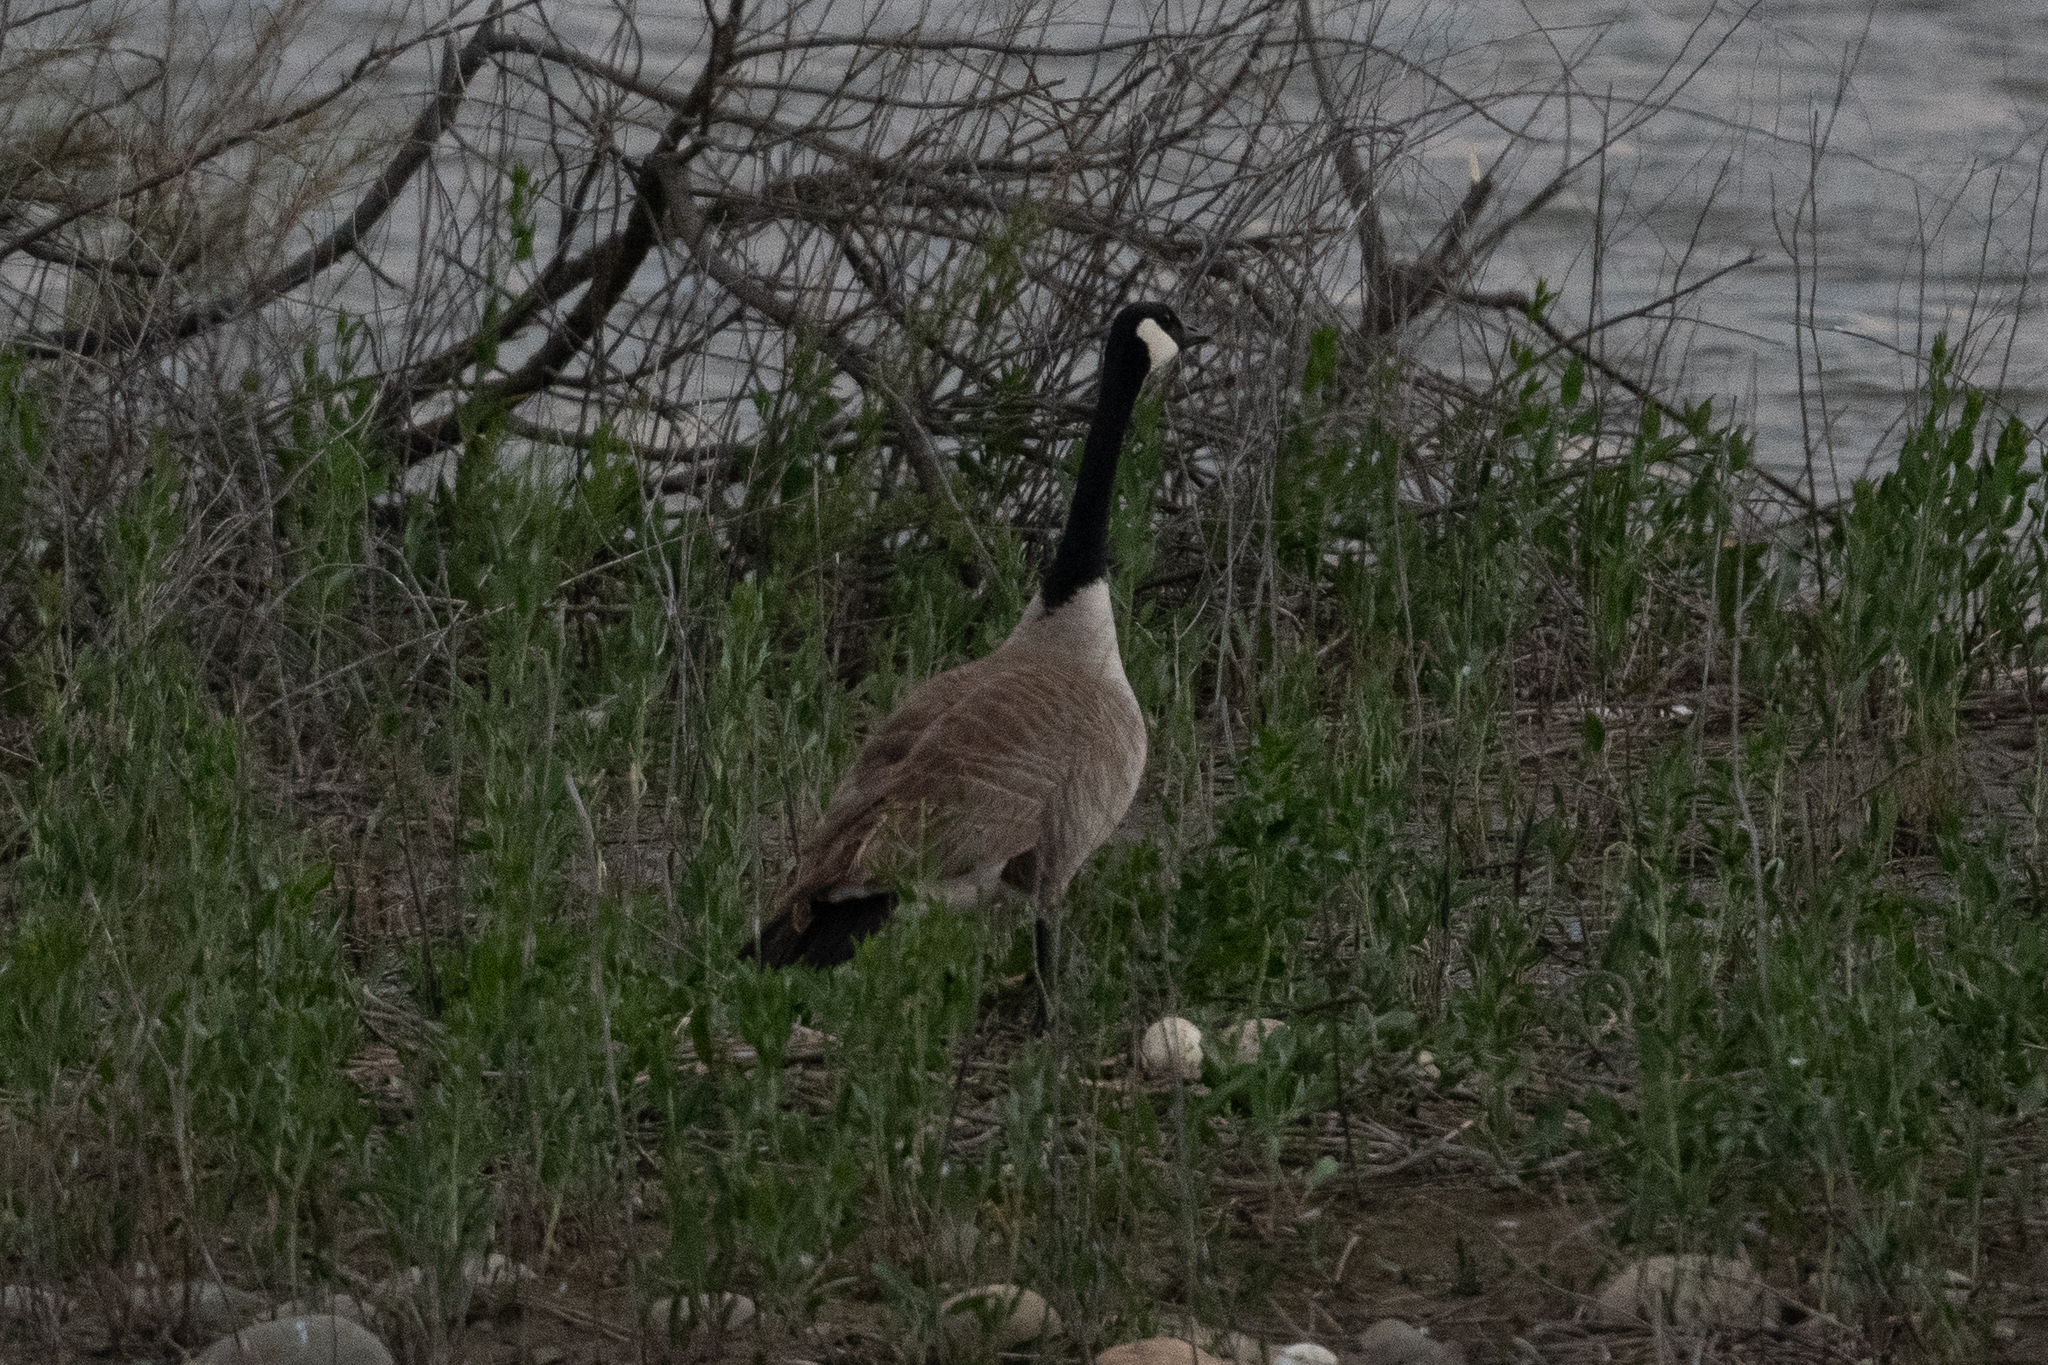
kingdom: Animalia
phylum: Chordata
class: Aves
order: Anseriformes
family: Anatidae
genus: Branta
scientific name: Branta canadensis
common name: Canada goose
